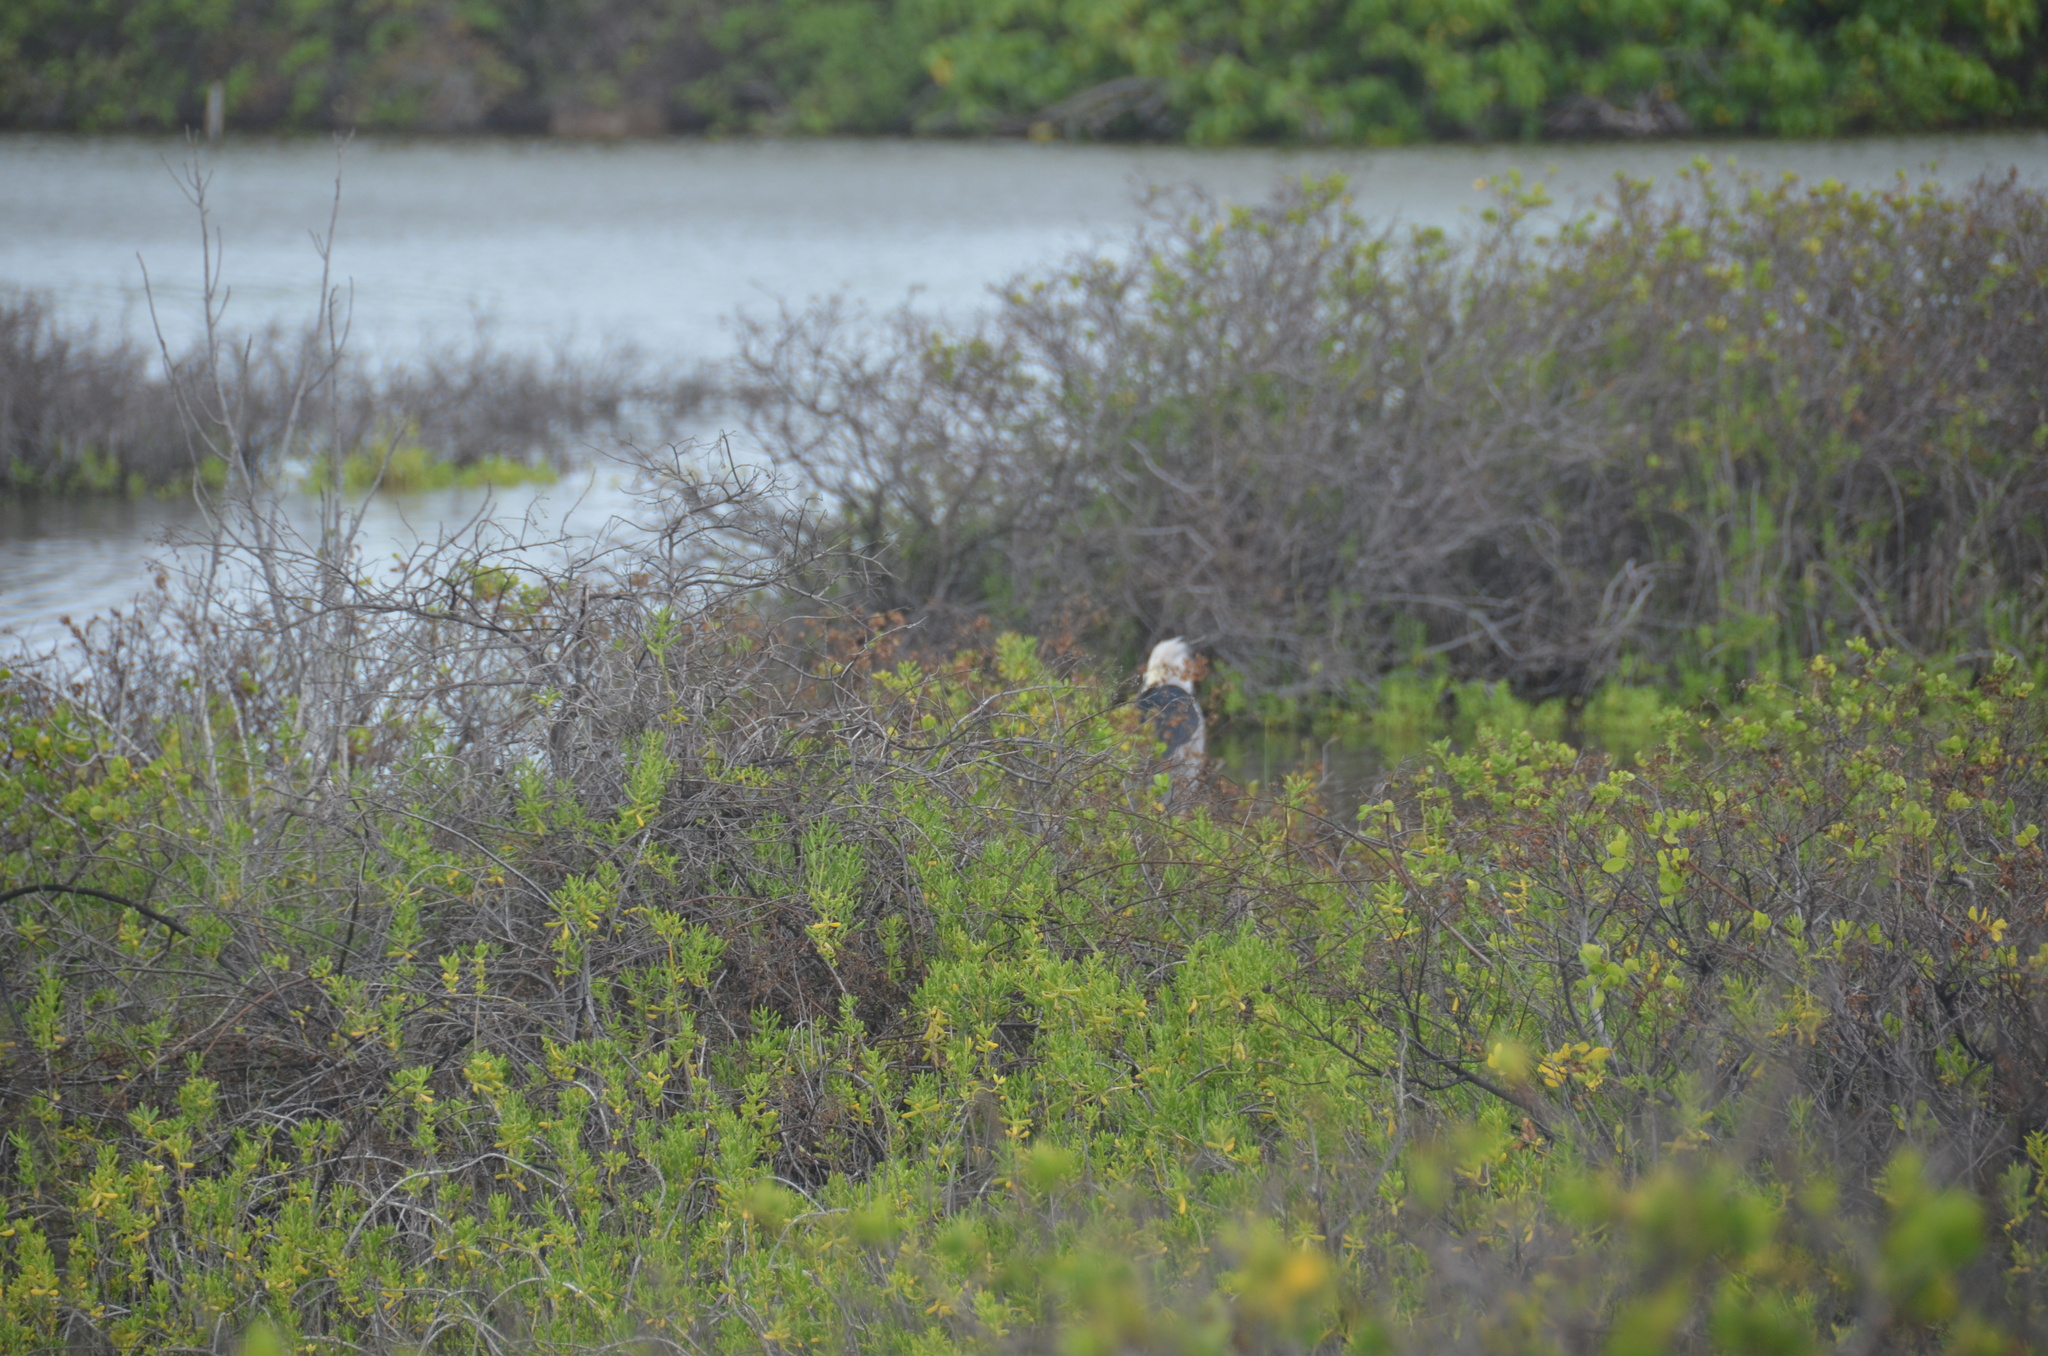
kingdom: Animalia
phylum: Chordata
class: Aves
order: Pelecaniformes
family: Ardeidae
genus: Nycticorax
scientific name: Nycticorax nycticorax
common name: Black-crowned night heron
